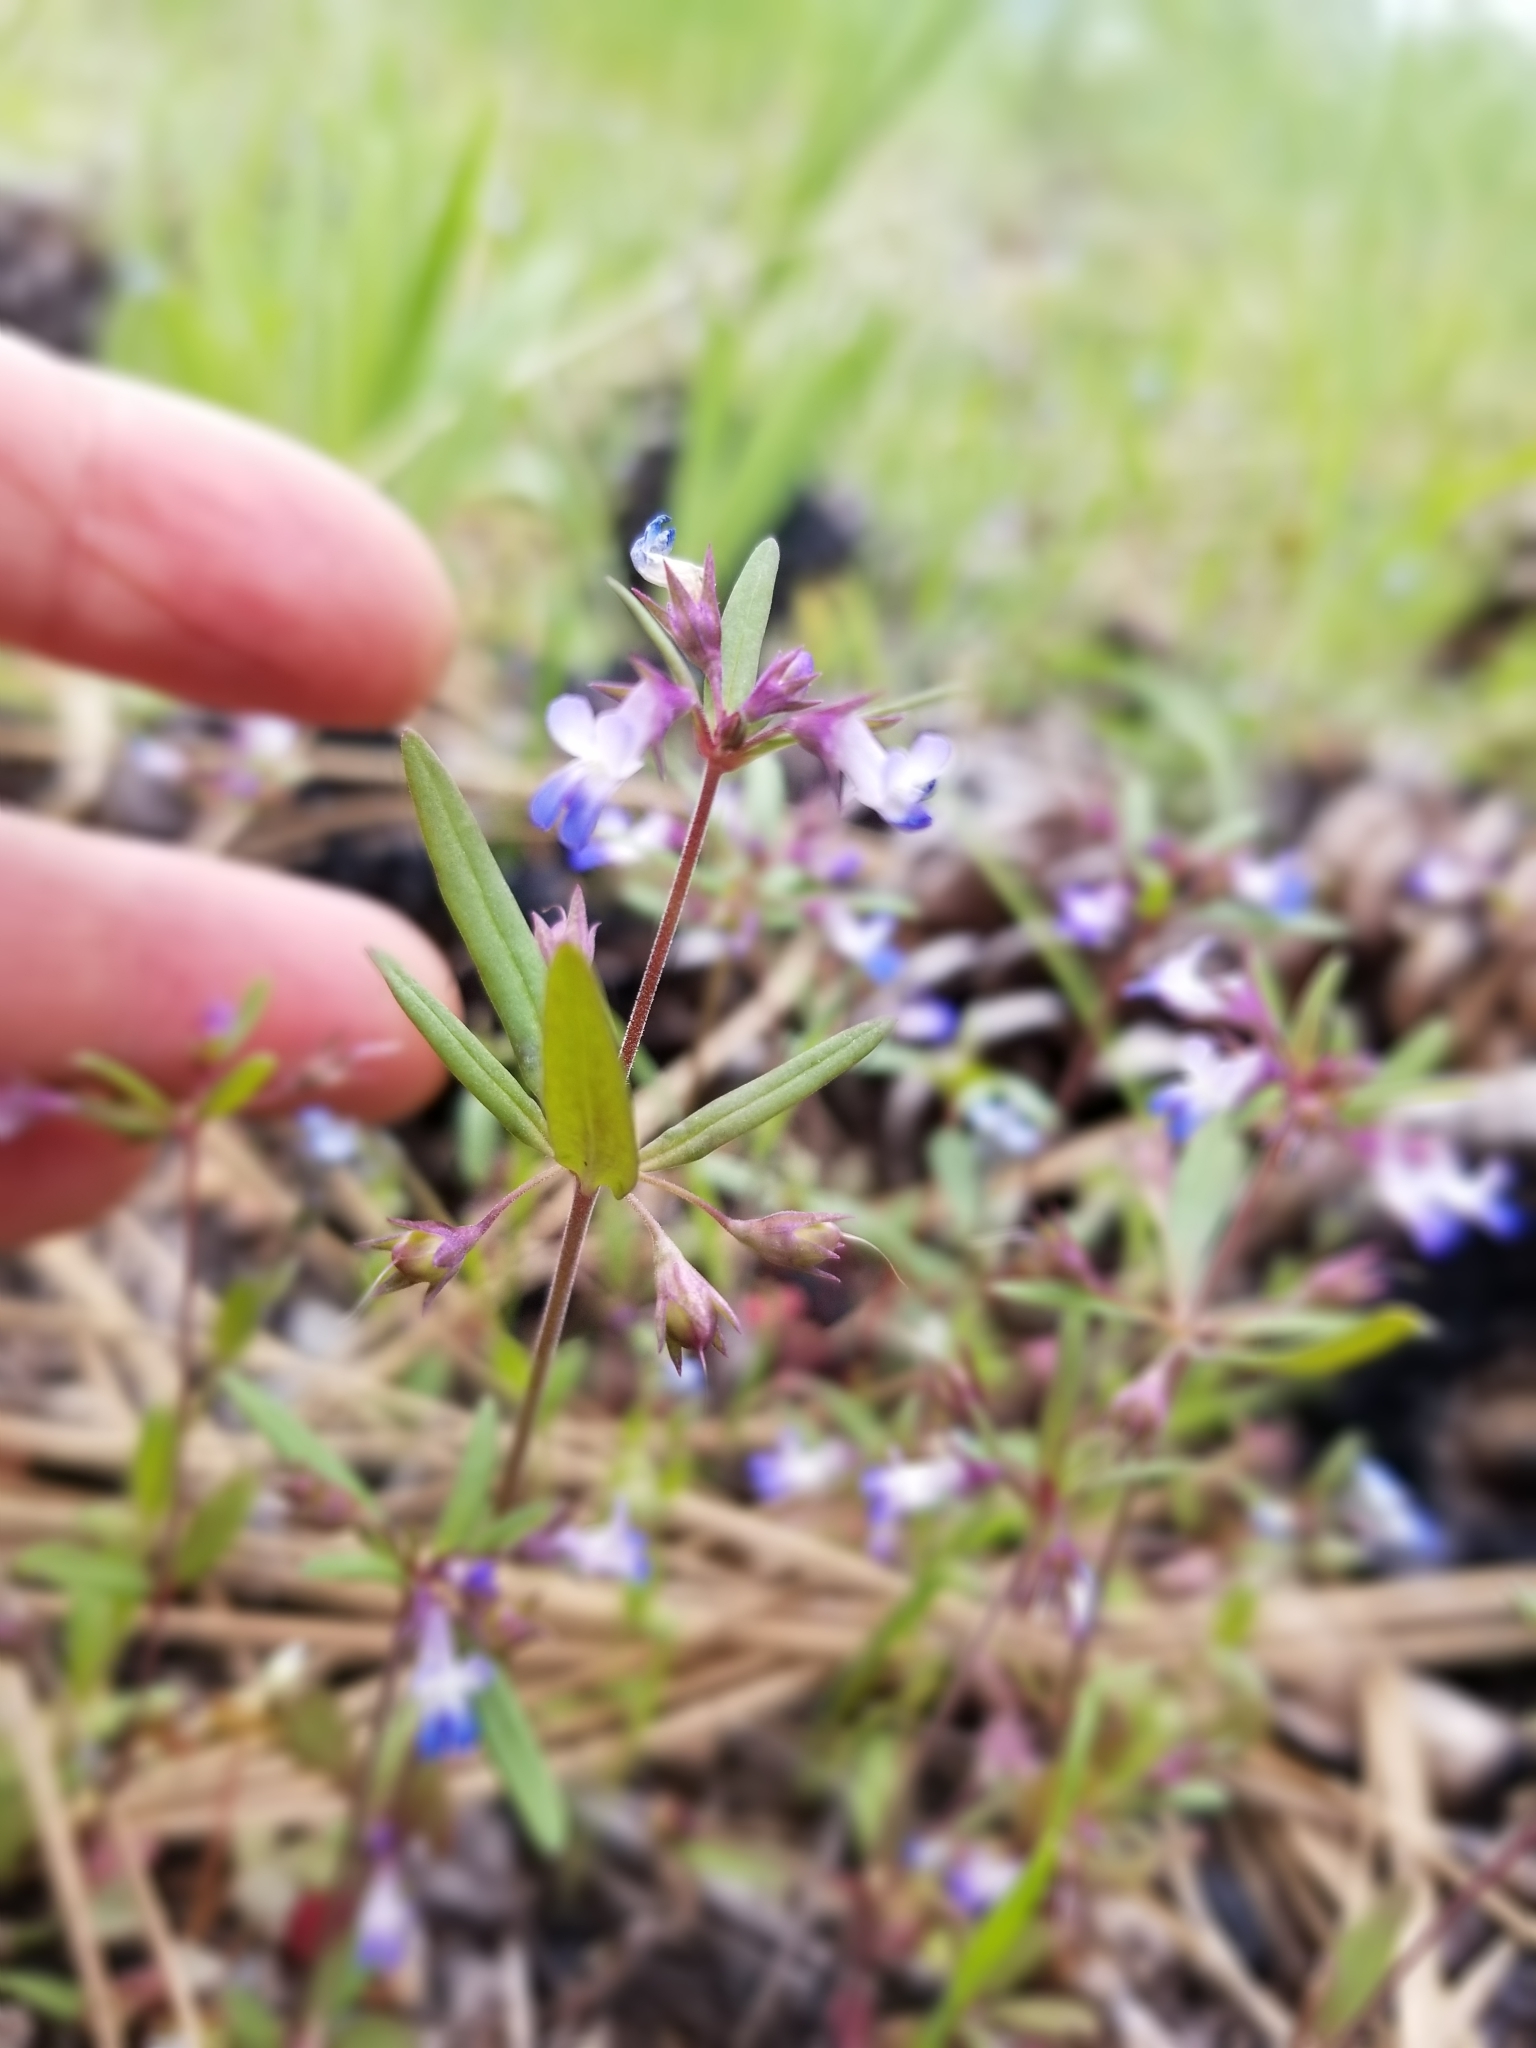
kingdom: Plantae
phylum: Tracheophyta
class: Magnoliopsida
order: Lamiales
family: Plantaginaceae
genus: Collinsia
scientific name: Collinsia parviflora
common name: Blue-lips
